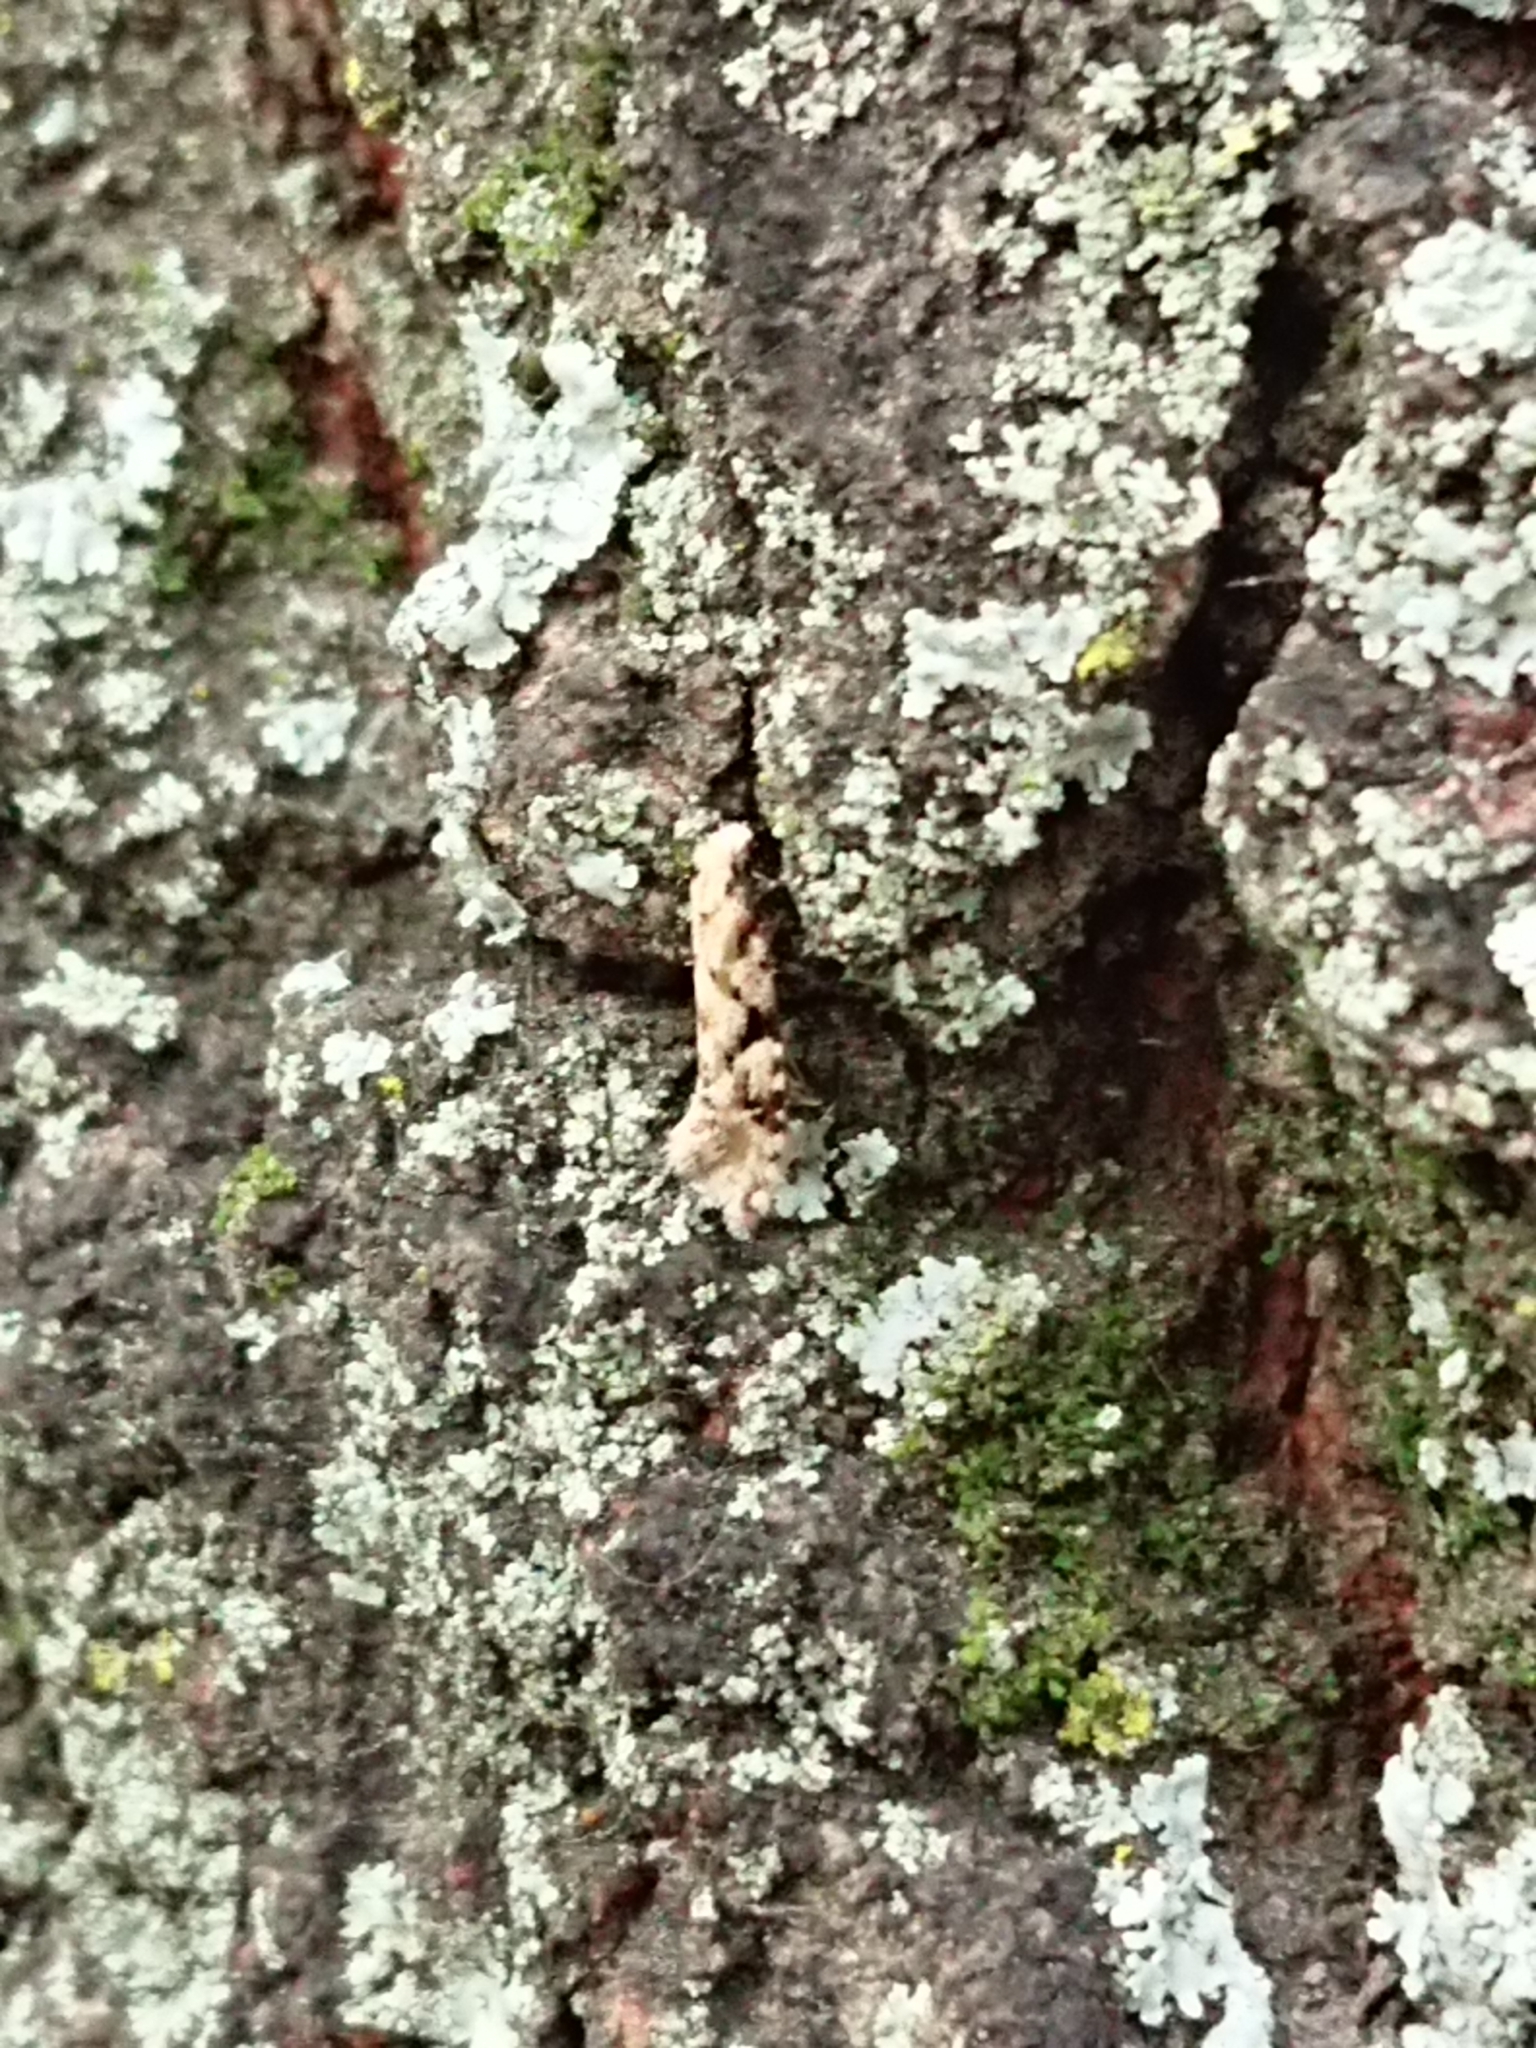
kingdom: Animalia
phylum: Arthropoda
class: Insecta
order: Lepidoptera
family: Tineidae
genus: Crypsitricha
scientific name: Crypsitricha mesotypa
